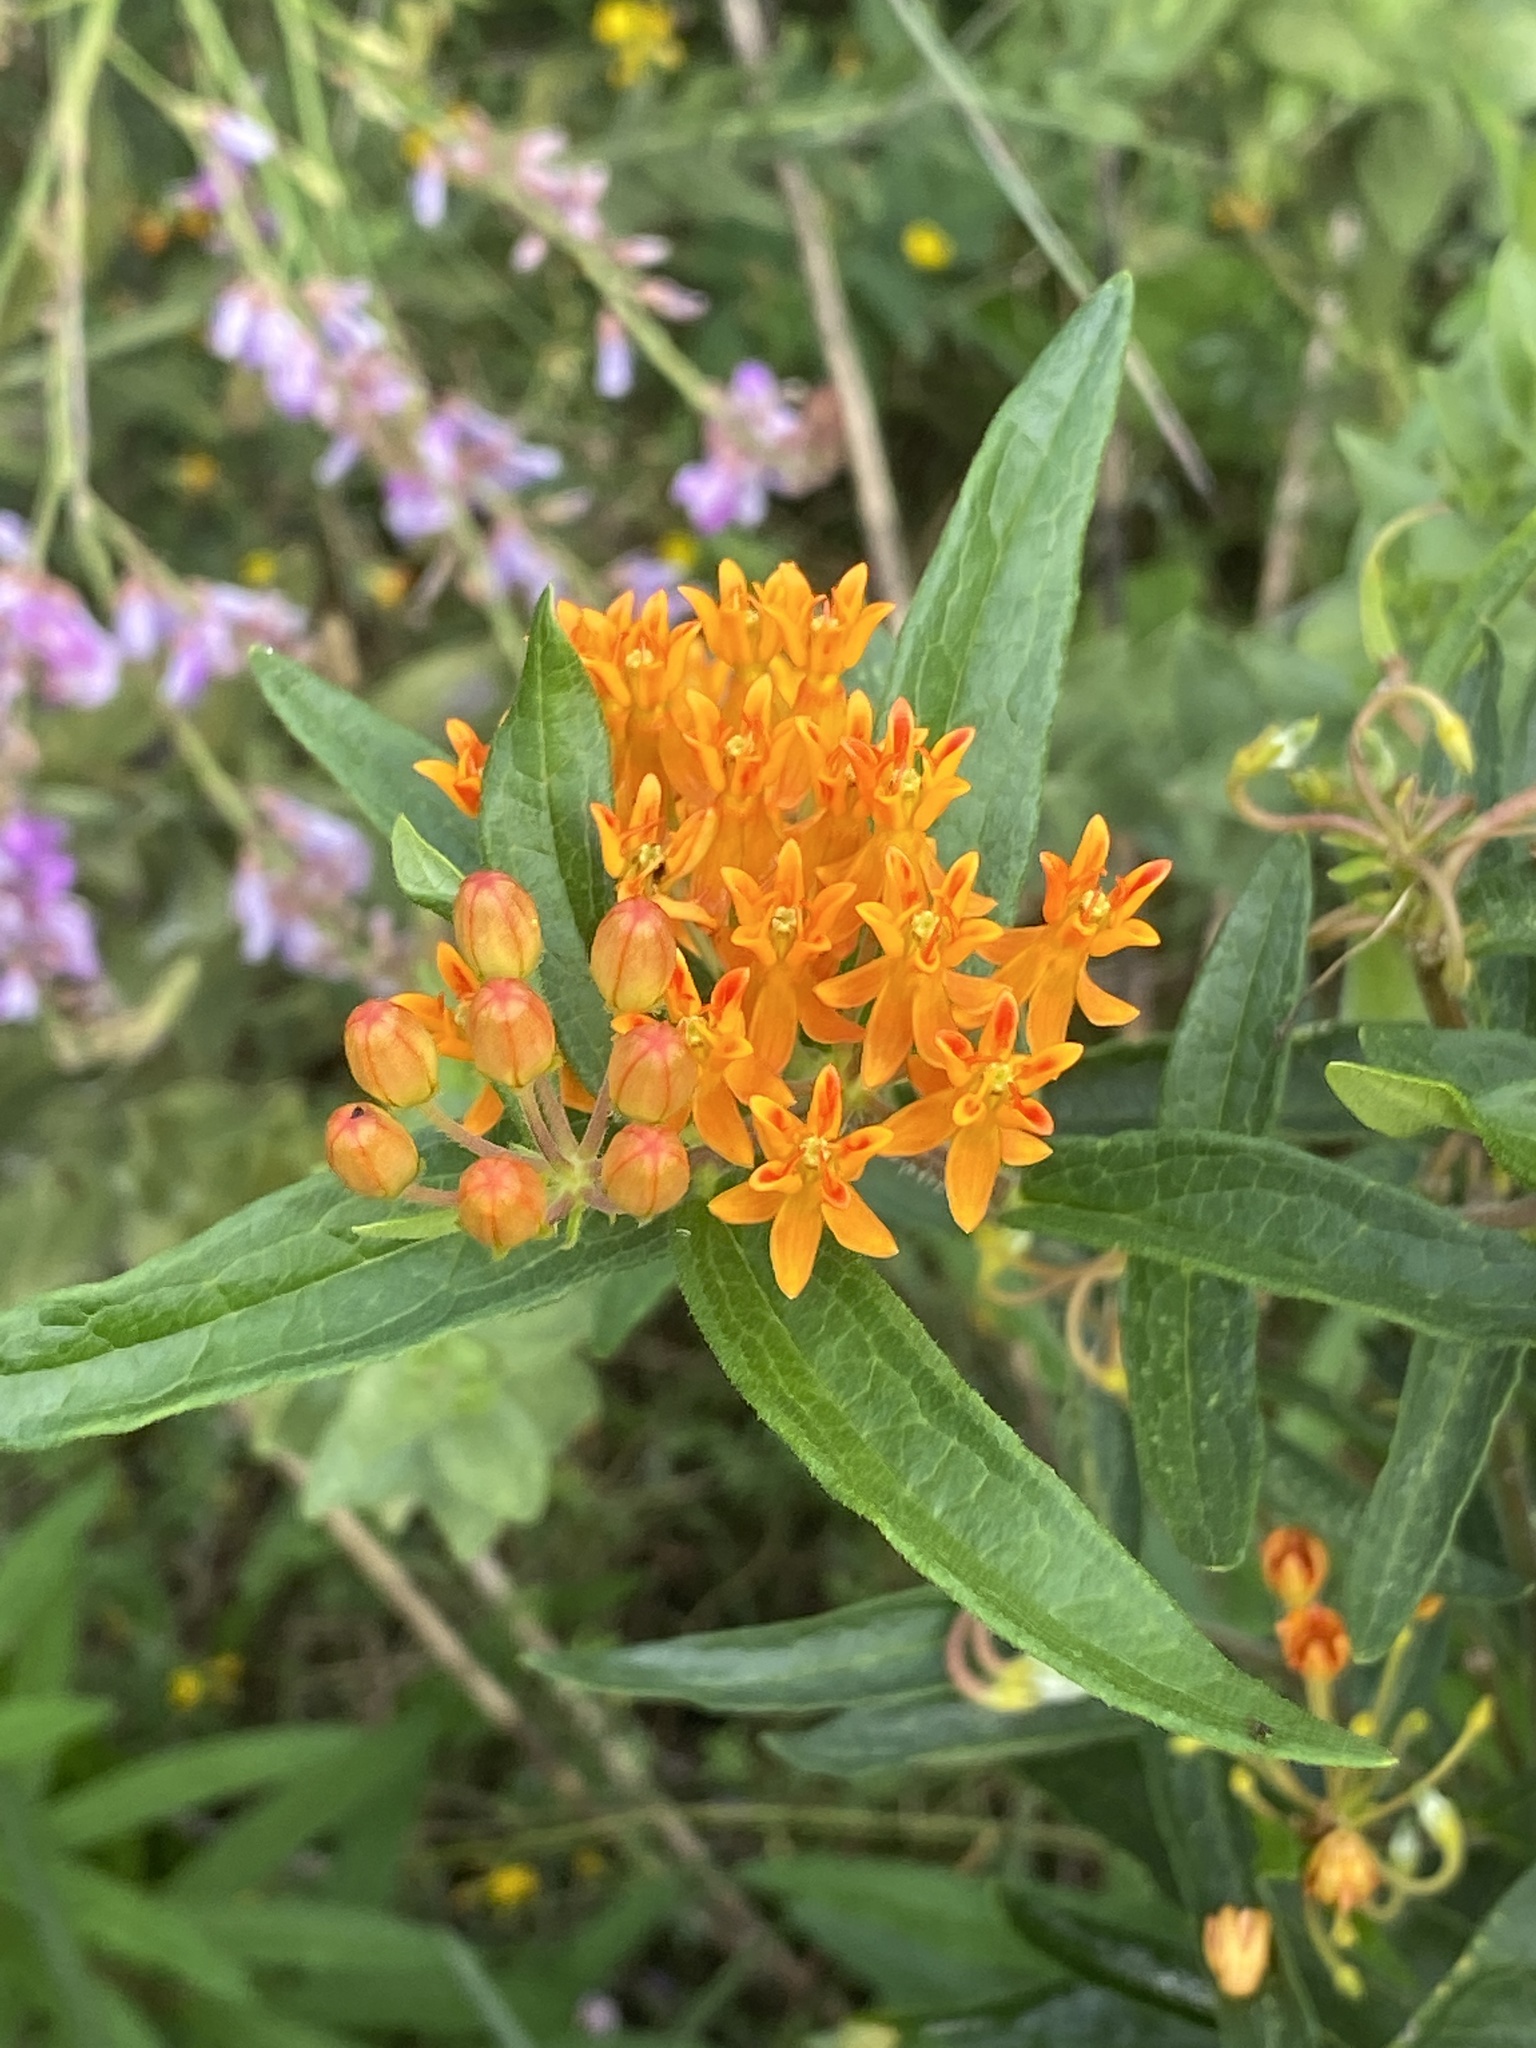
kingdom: Plantae
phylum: Tracheophyta
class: Magnoliopsida
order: Gentianales
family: Apocynaceae
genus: Asclepias
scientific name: Asclepias tuberosa
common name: Butterfly milkweed
